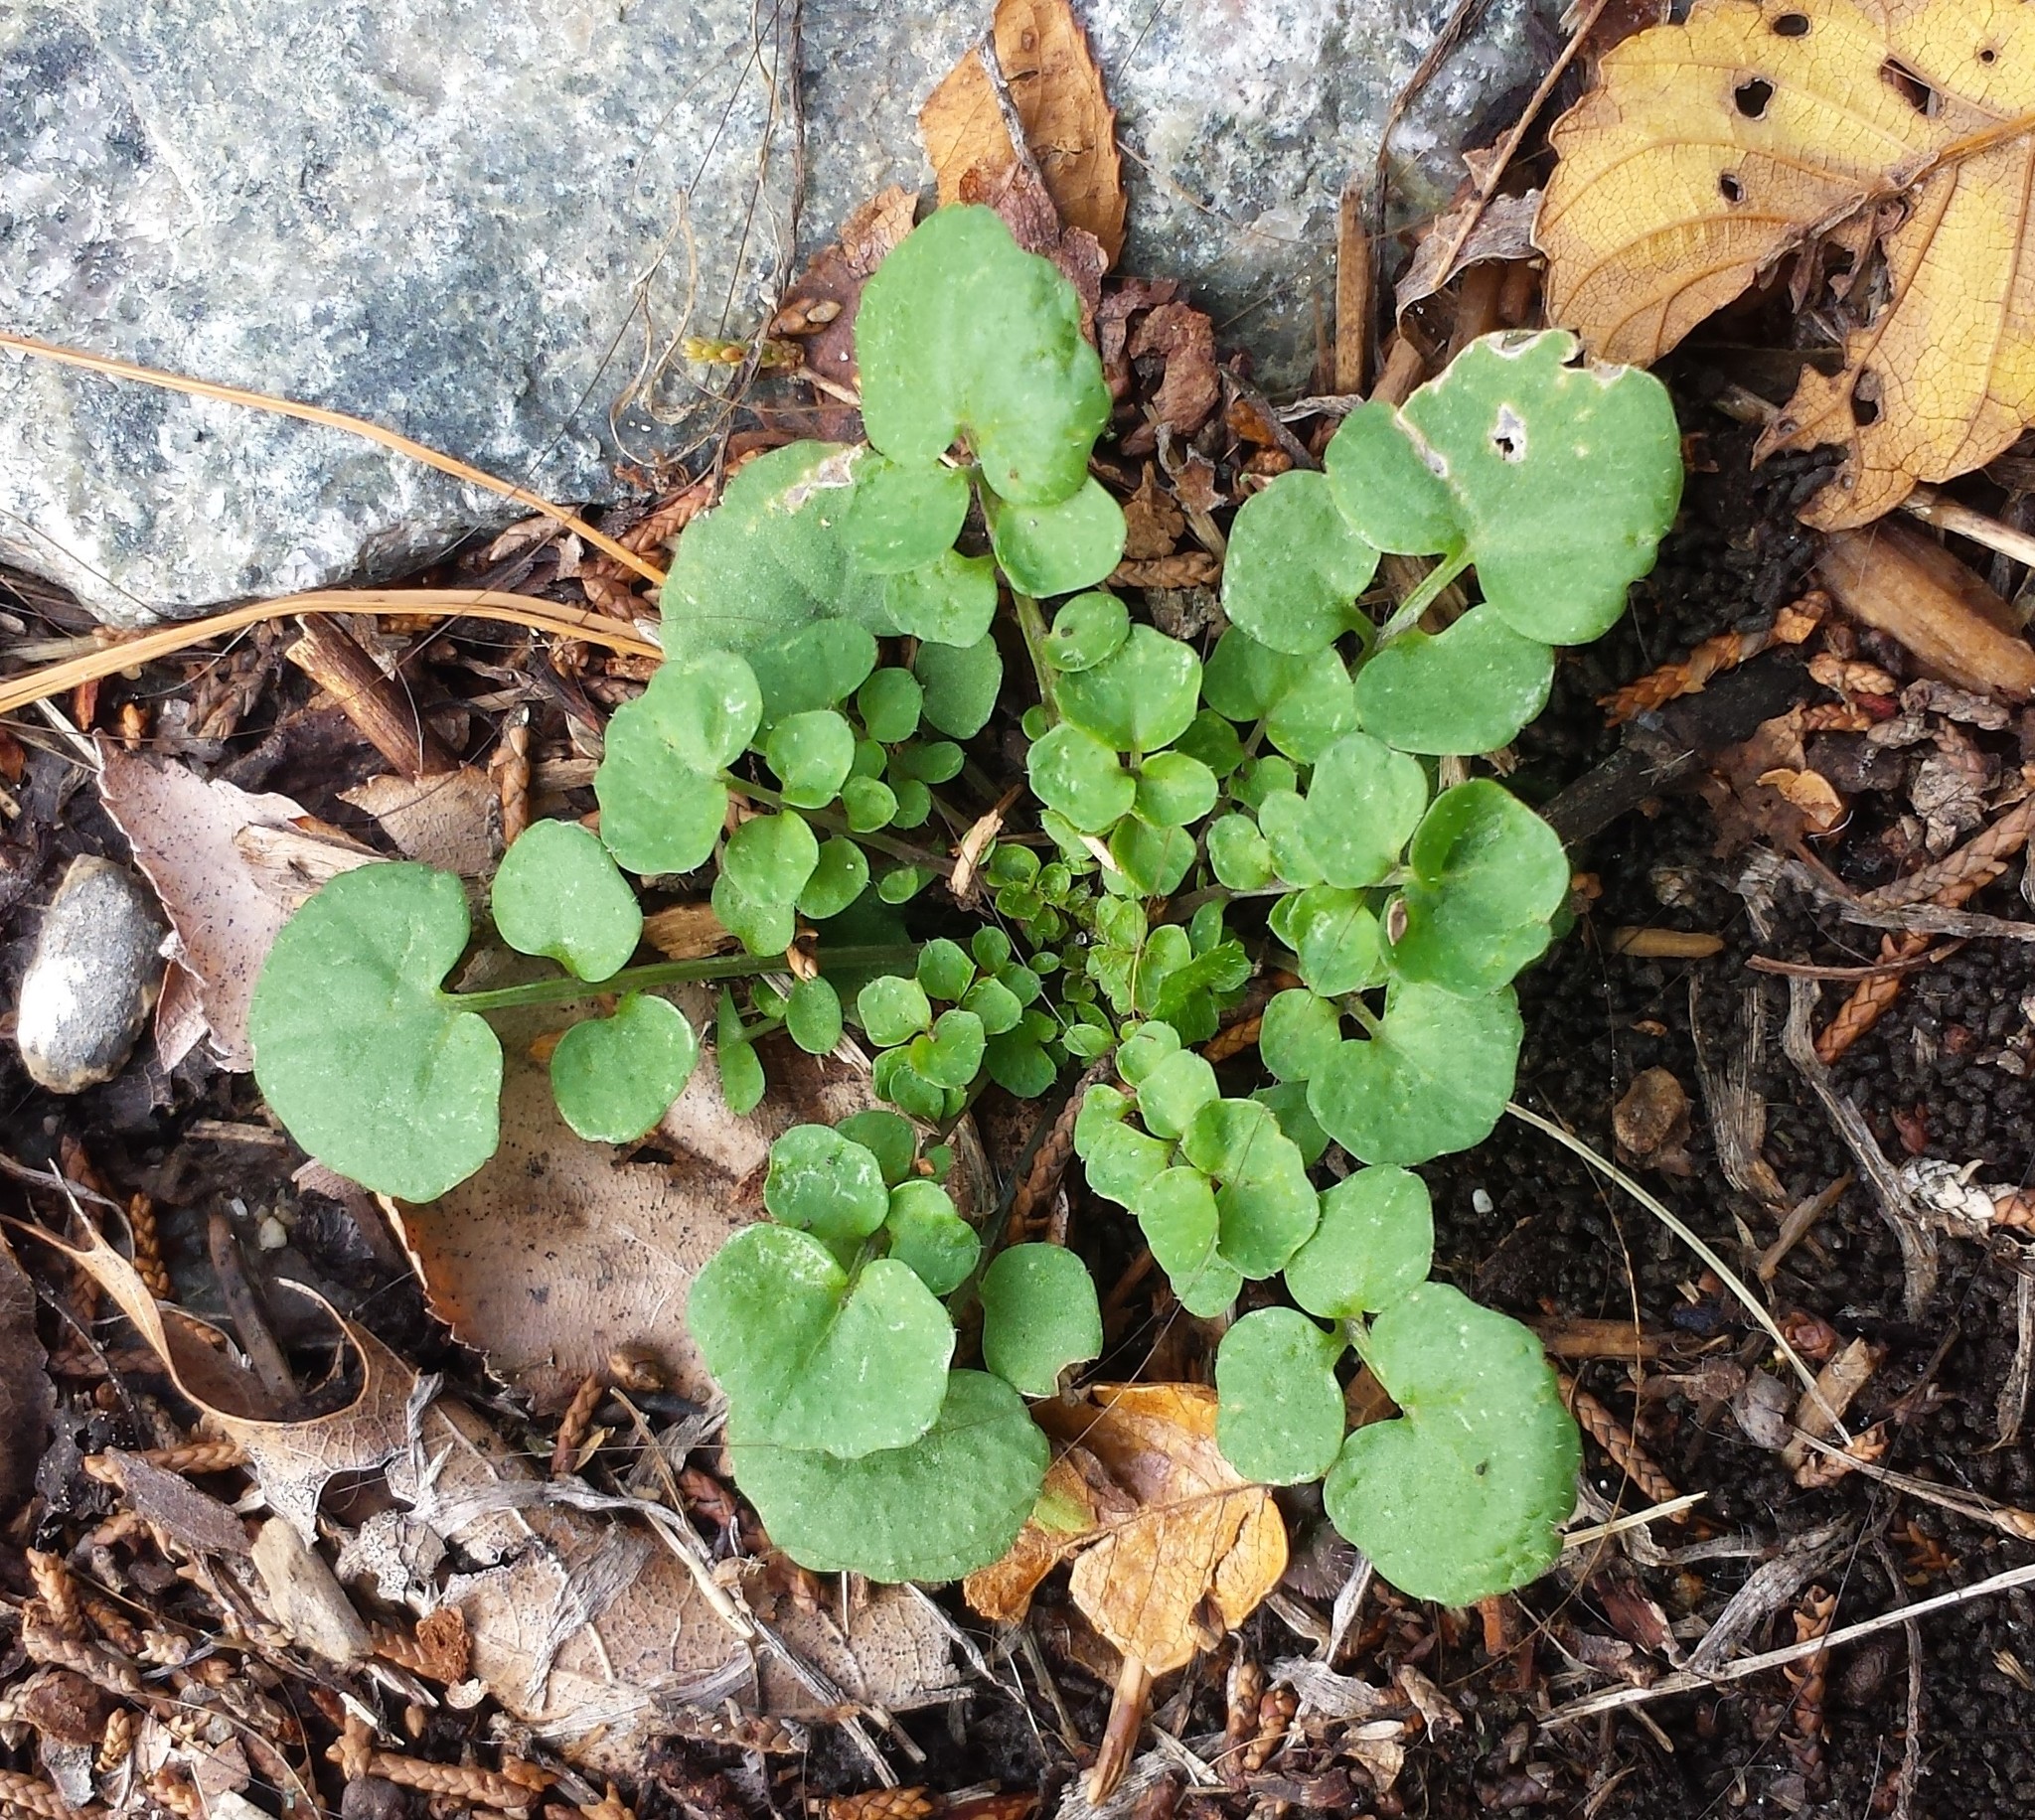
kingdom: Plantae
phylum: Tracheophyta
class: Magnoliopsida
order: Brassicales
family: Brassicaceae
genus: Cardamine
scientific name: Cardamine hirsuta
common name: Hairy bittercress
